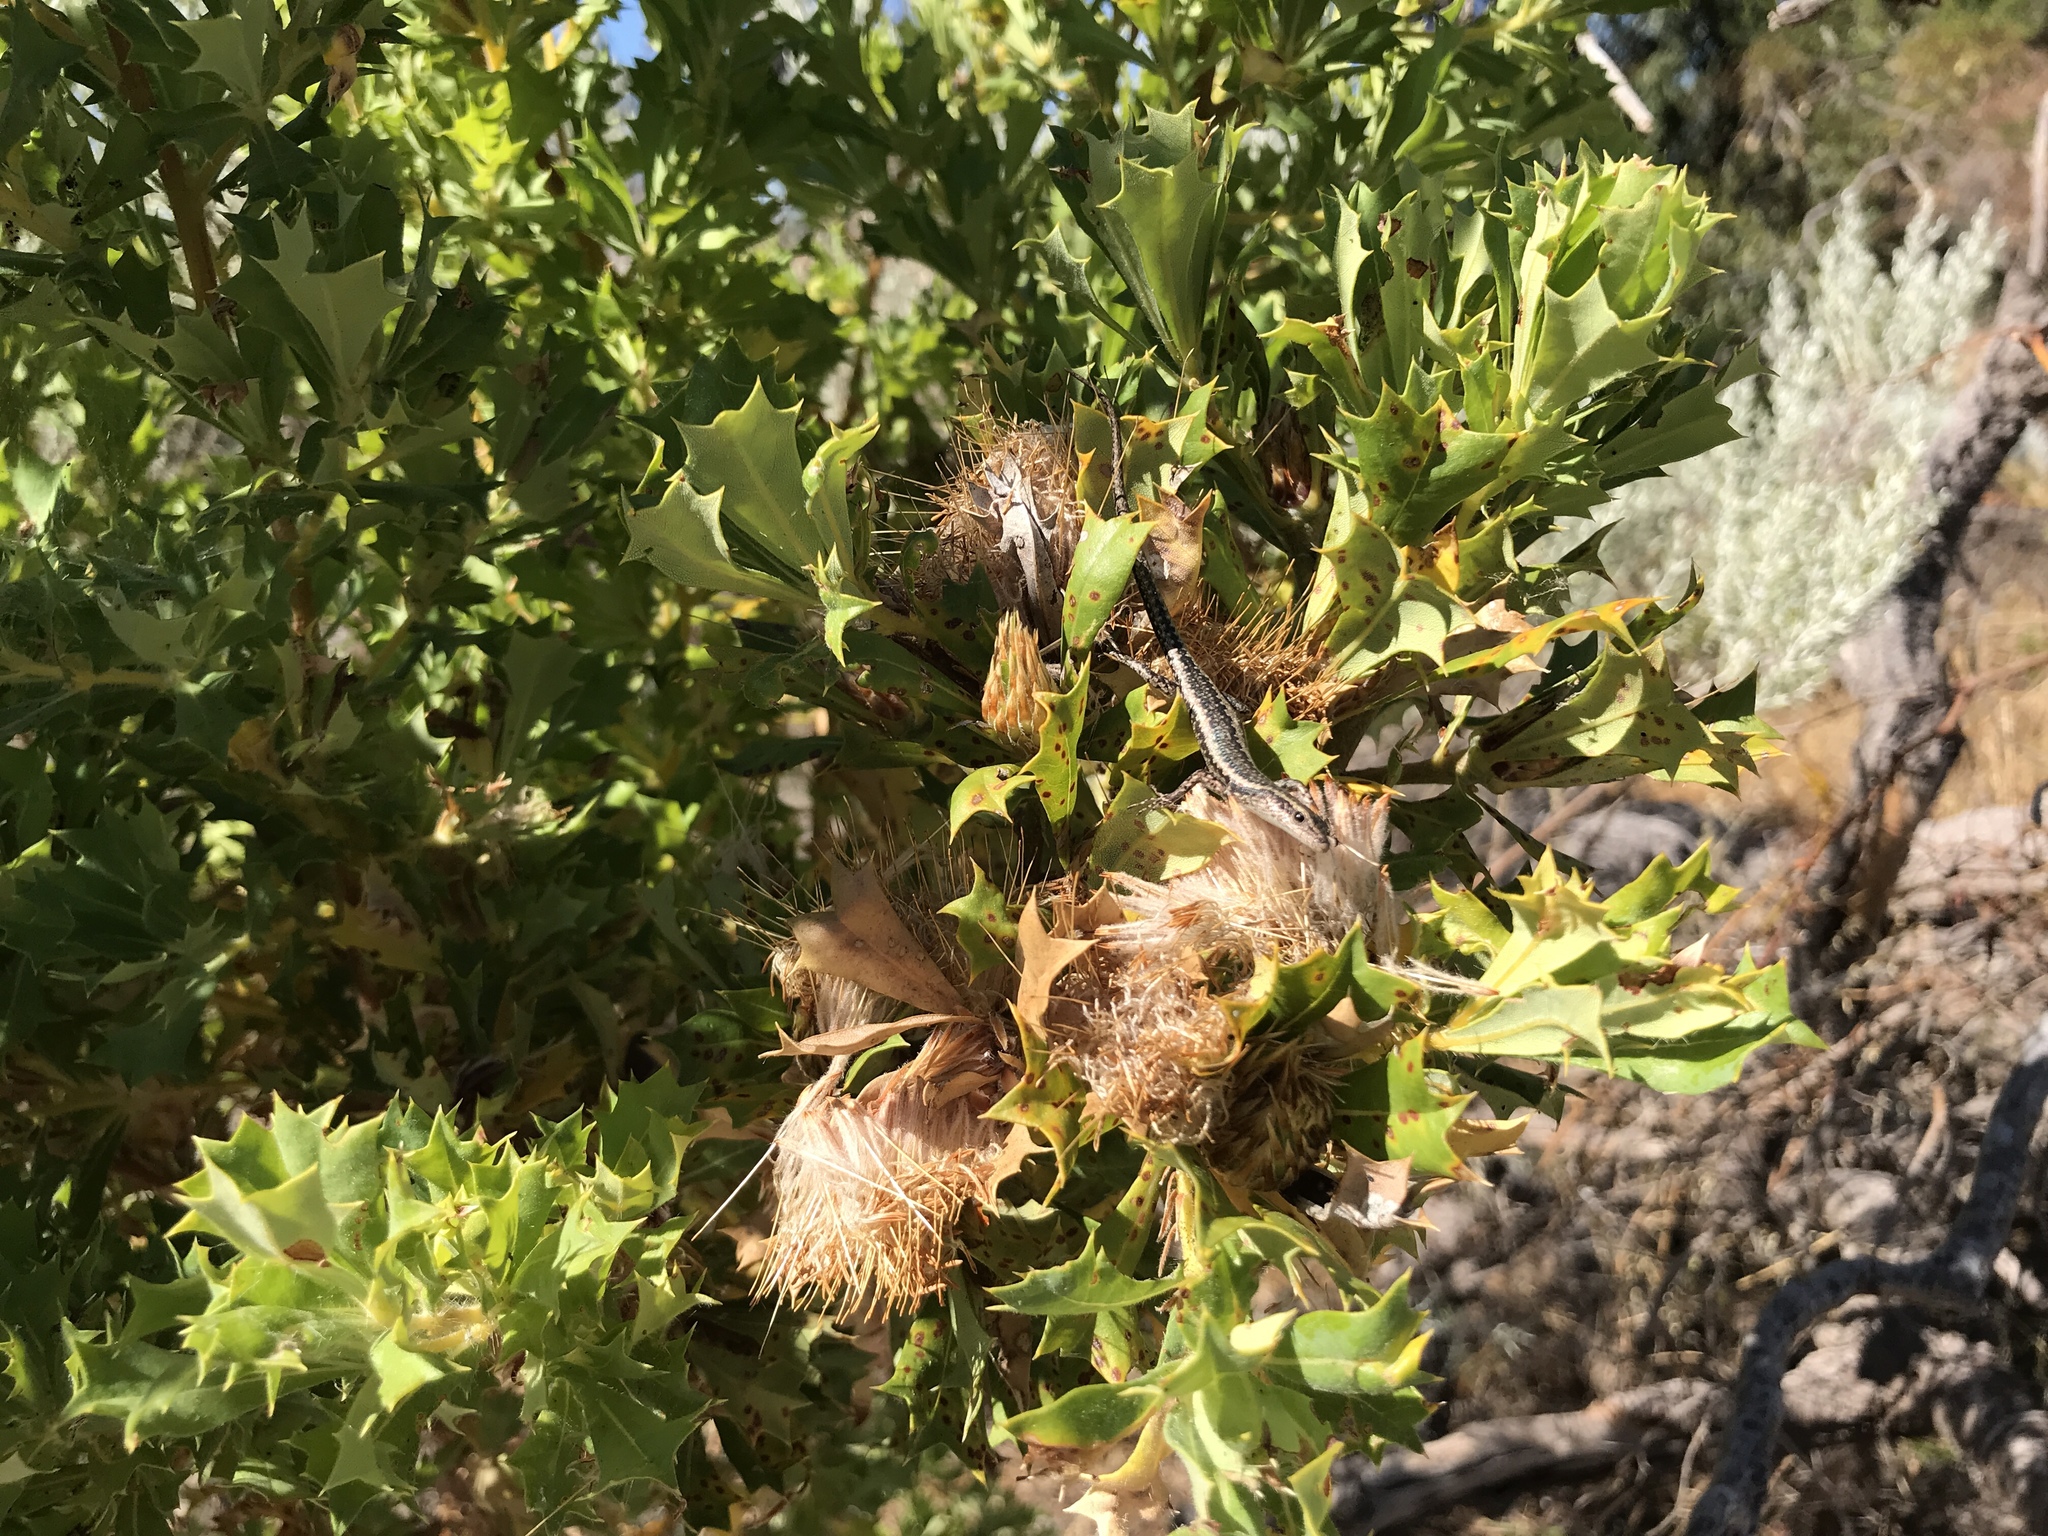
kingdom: Plantae
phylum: Tracheophyta
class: Magnoliopsida
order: Proteales
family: Proteaceae
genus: Banksia
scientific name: Banksia sessilis
